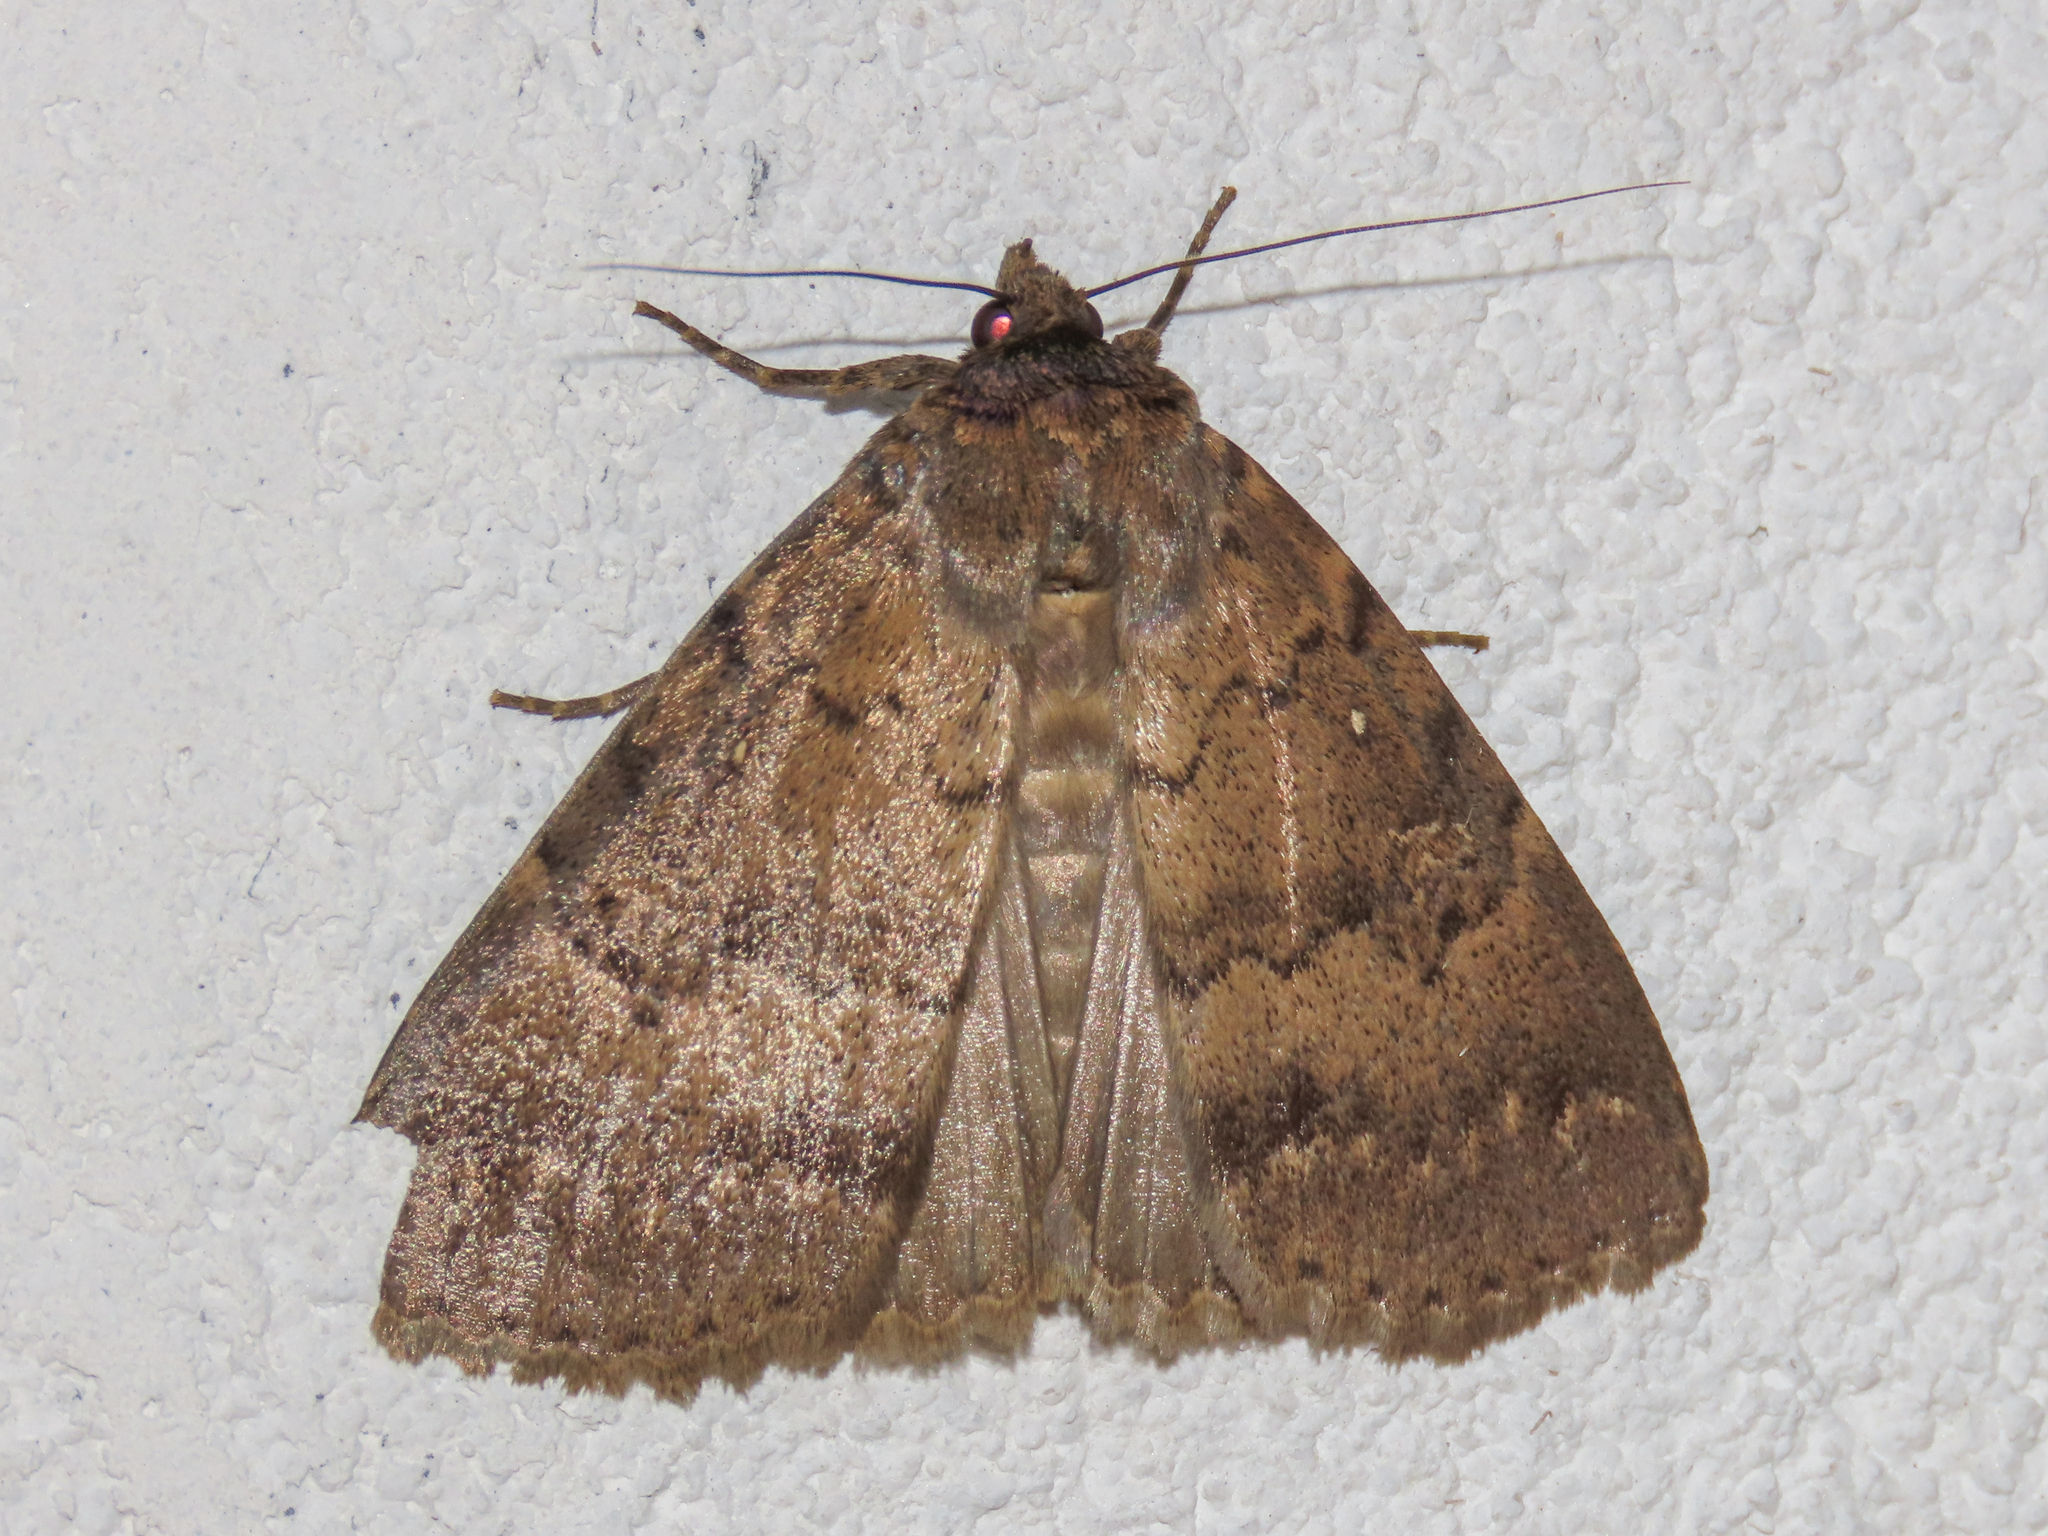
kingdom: Animalia
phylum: Arthropoda
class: Insecta
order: Lepidoptera
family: Erebidae
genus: Apopestes
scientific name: Apopestes spectrum
